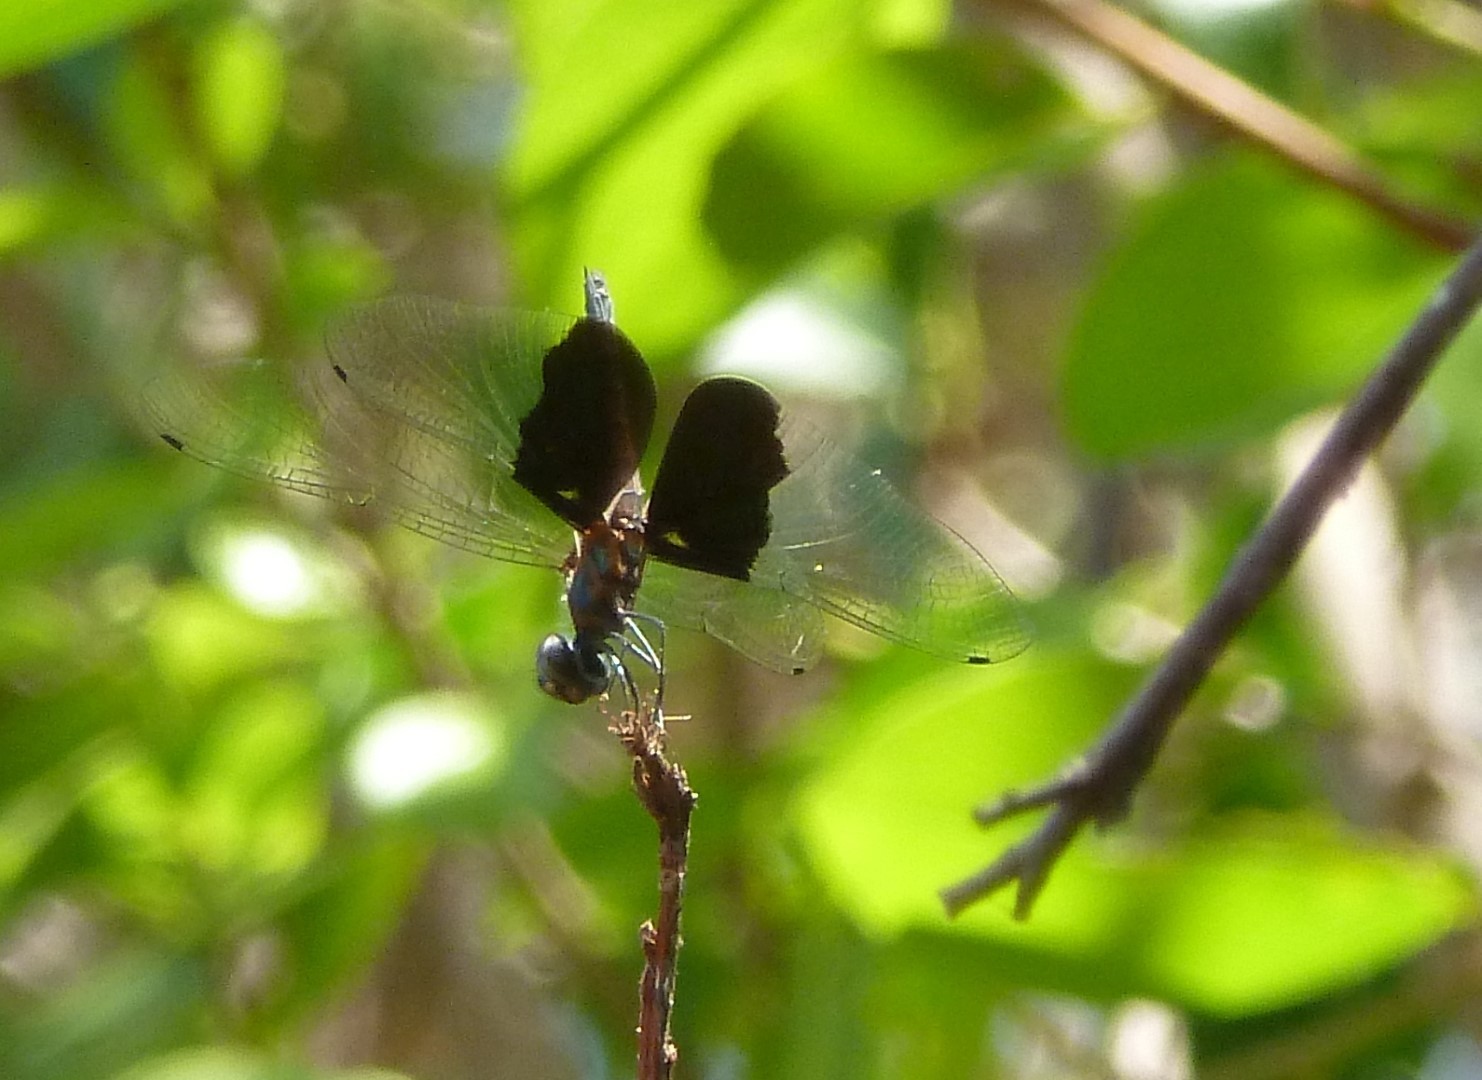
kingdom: Animalia
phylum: Arthropoda
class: Insecta
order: Odonata
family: Libellulidae
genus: Rhyothemis
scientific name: Rhyothemis semihyalina
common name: Phantom flutterer
